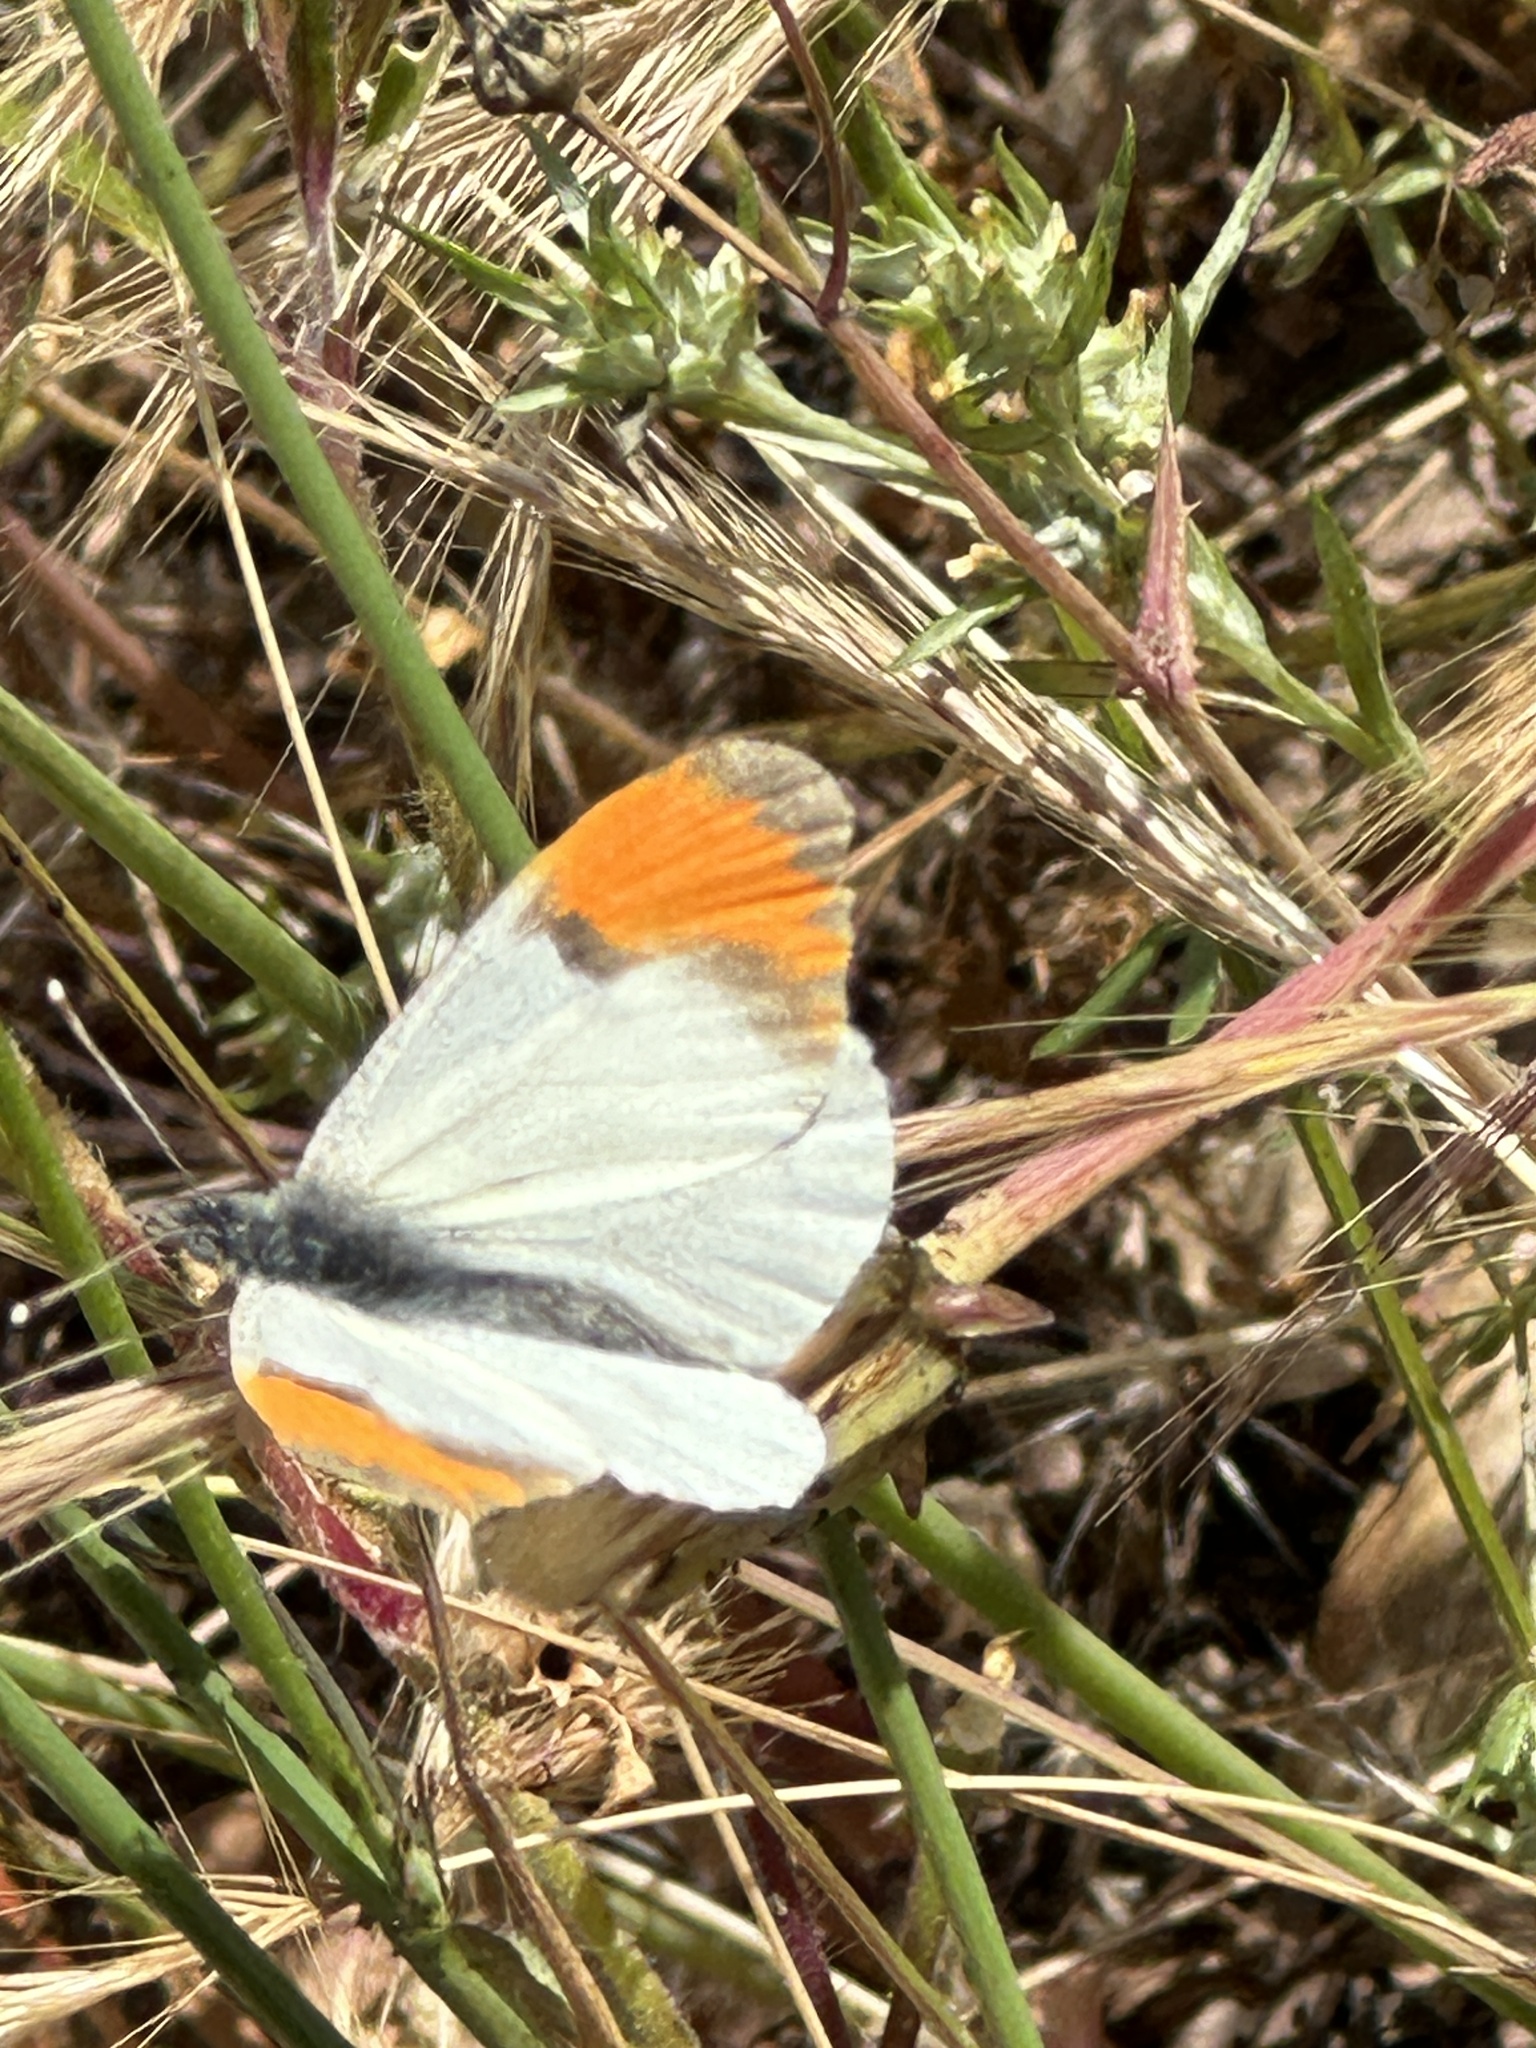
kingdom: Animalia
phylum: Arthropoda
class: Insecta
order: Lepidoptera
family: Pieridae
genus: Anthocharis
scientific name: Anthocharis sara
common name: Sara's orangetip
